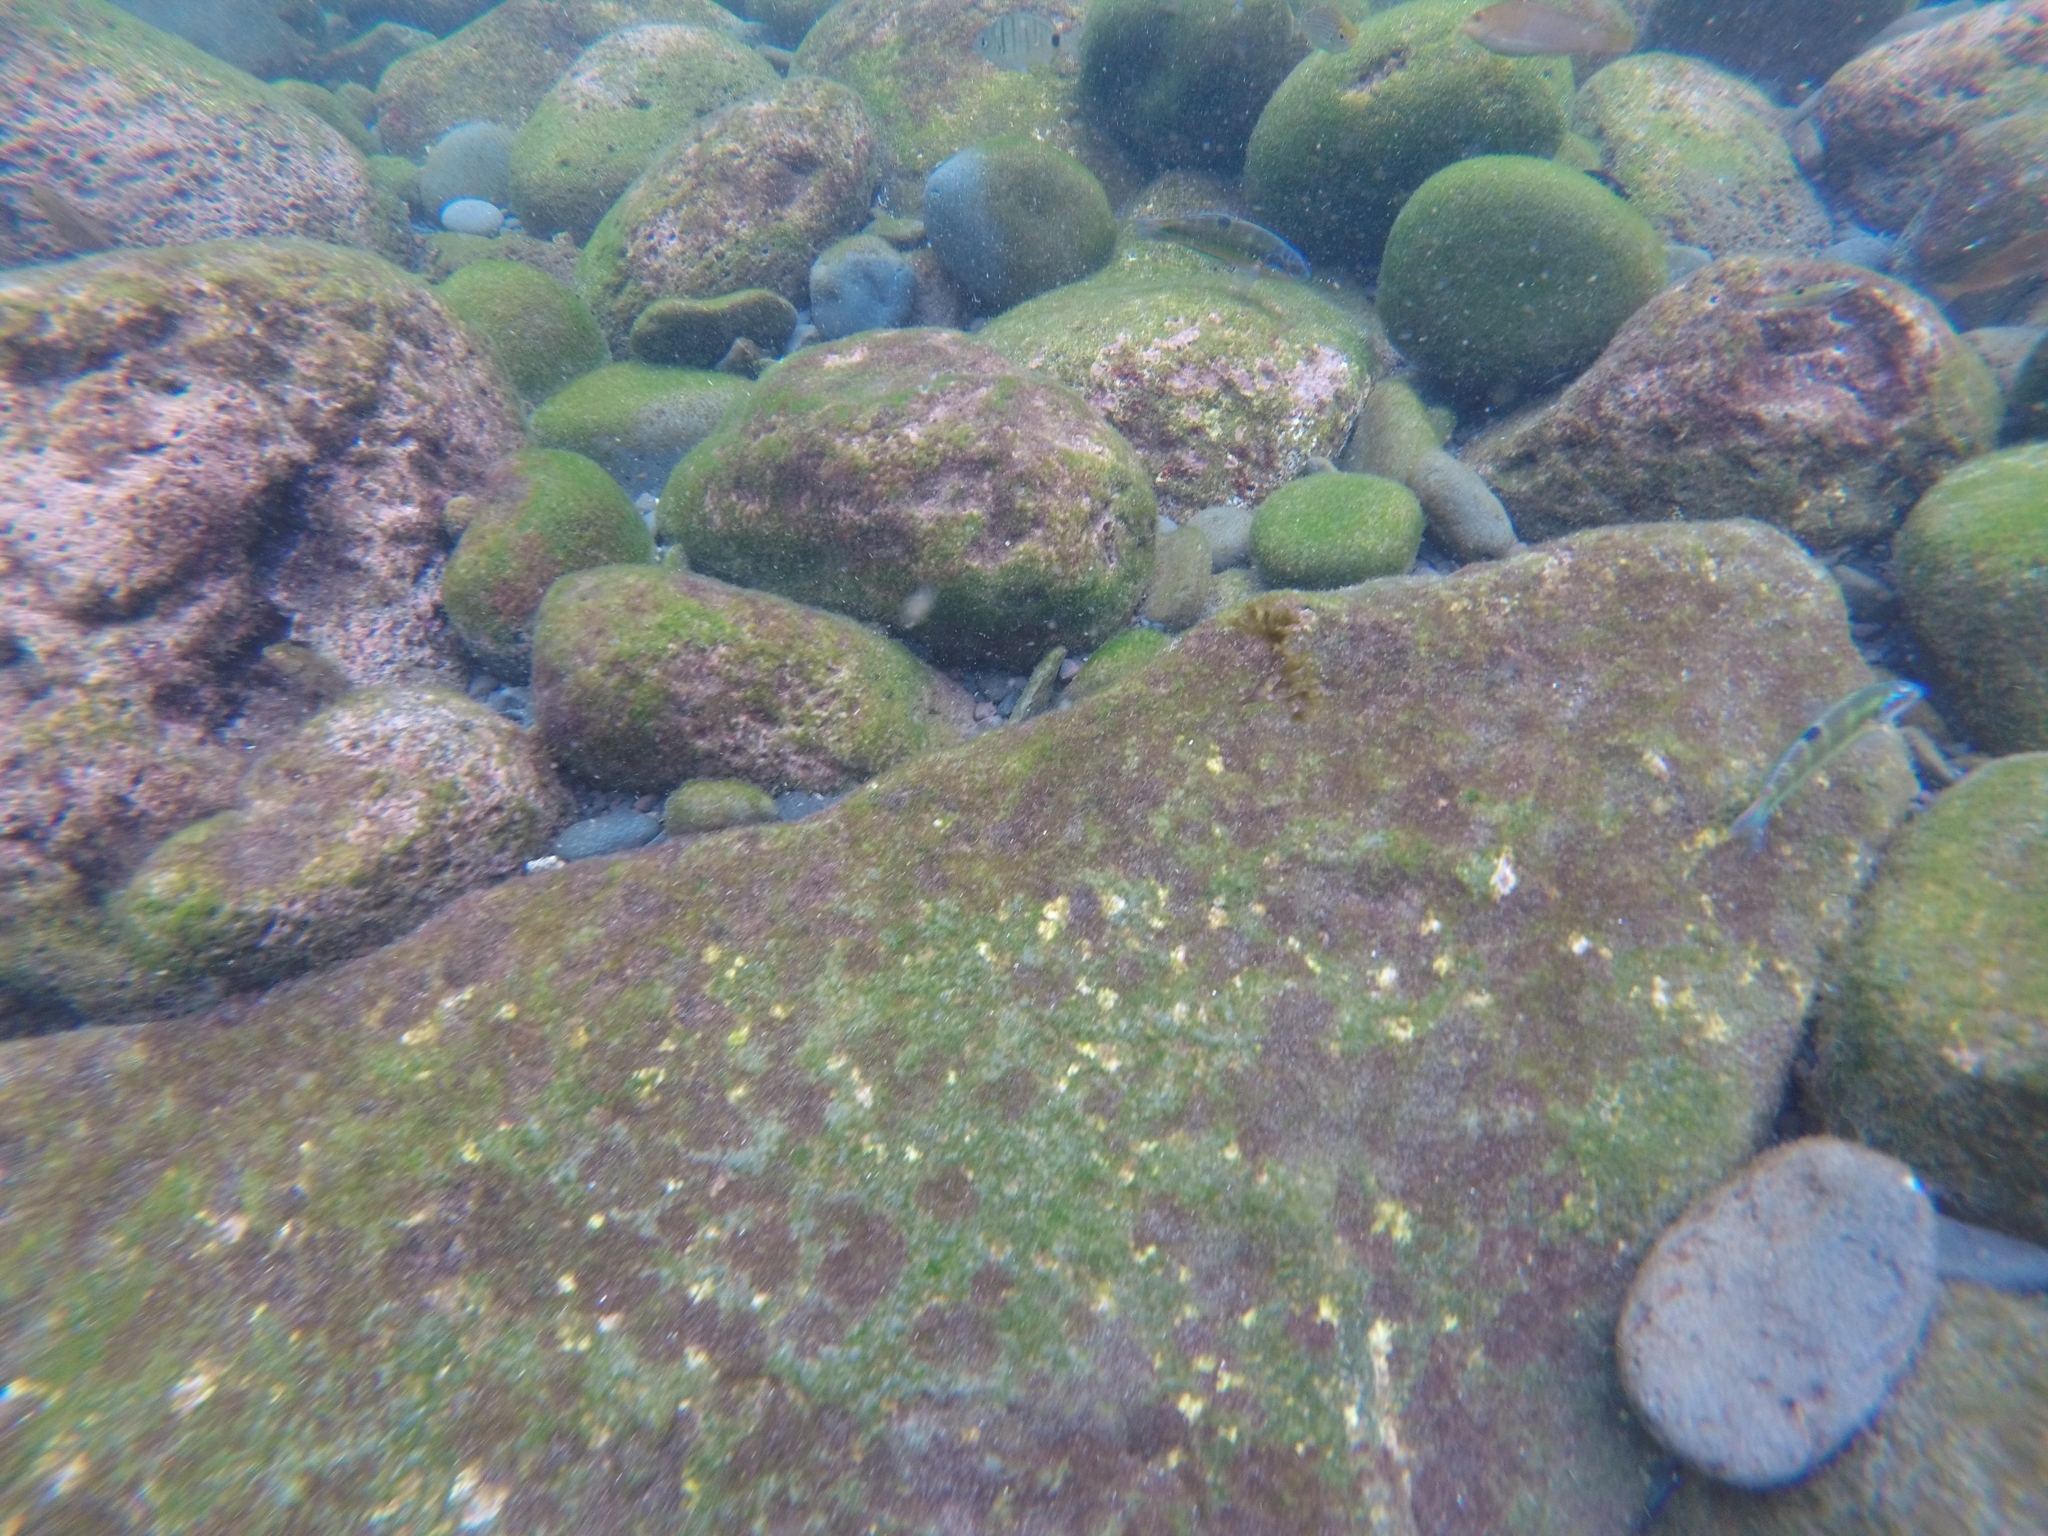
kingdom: Animalia
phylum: Chordata
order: Perciformes
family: Labridae
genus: Thalassoma
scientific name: Thalassoma pavo
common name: Ornate wrasse
